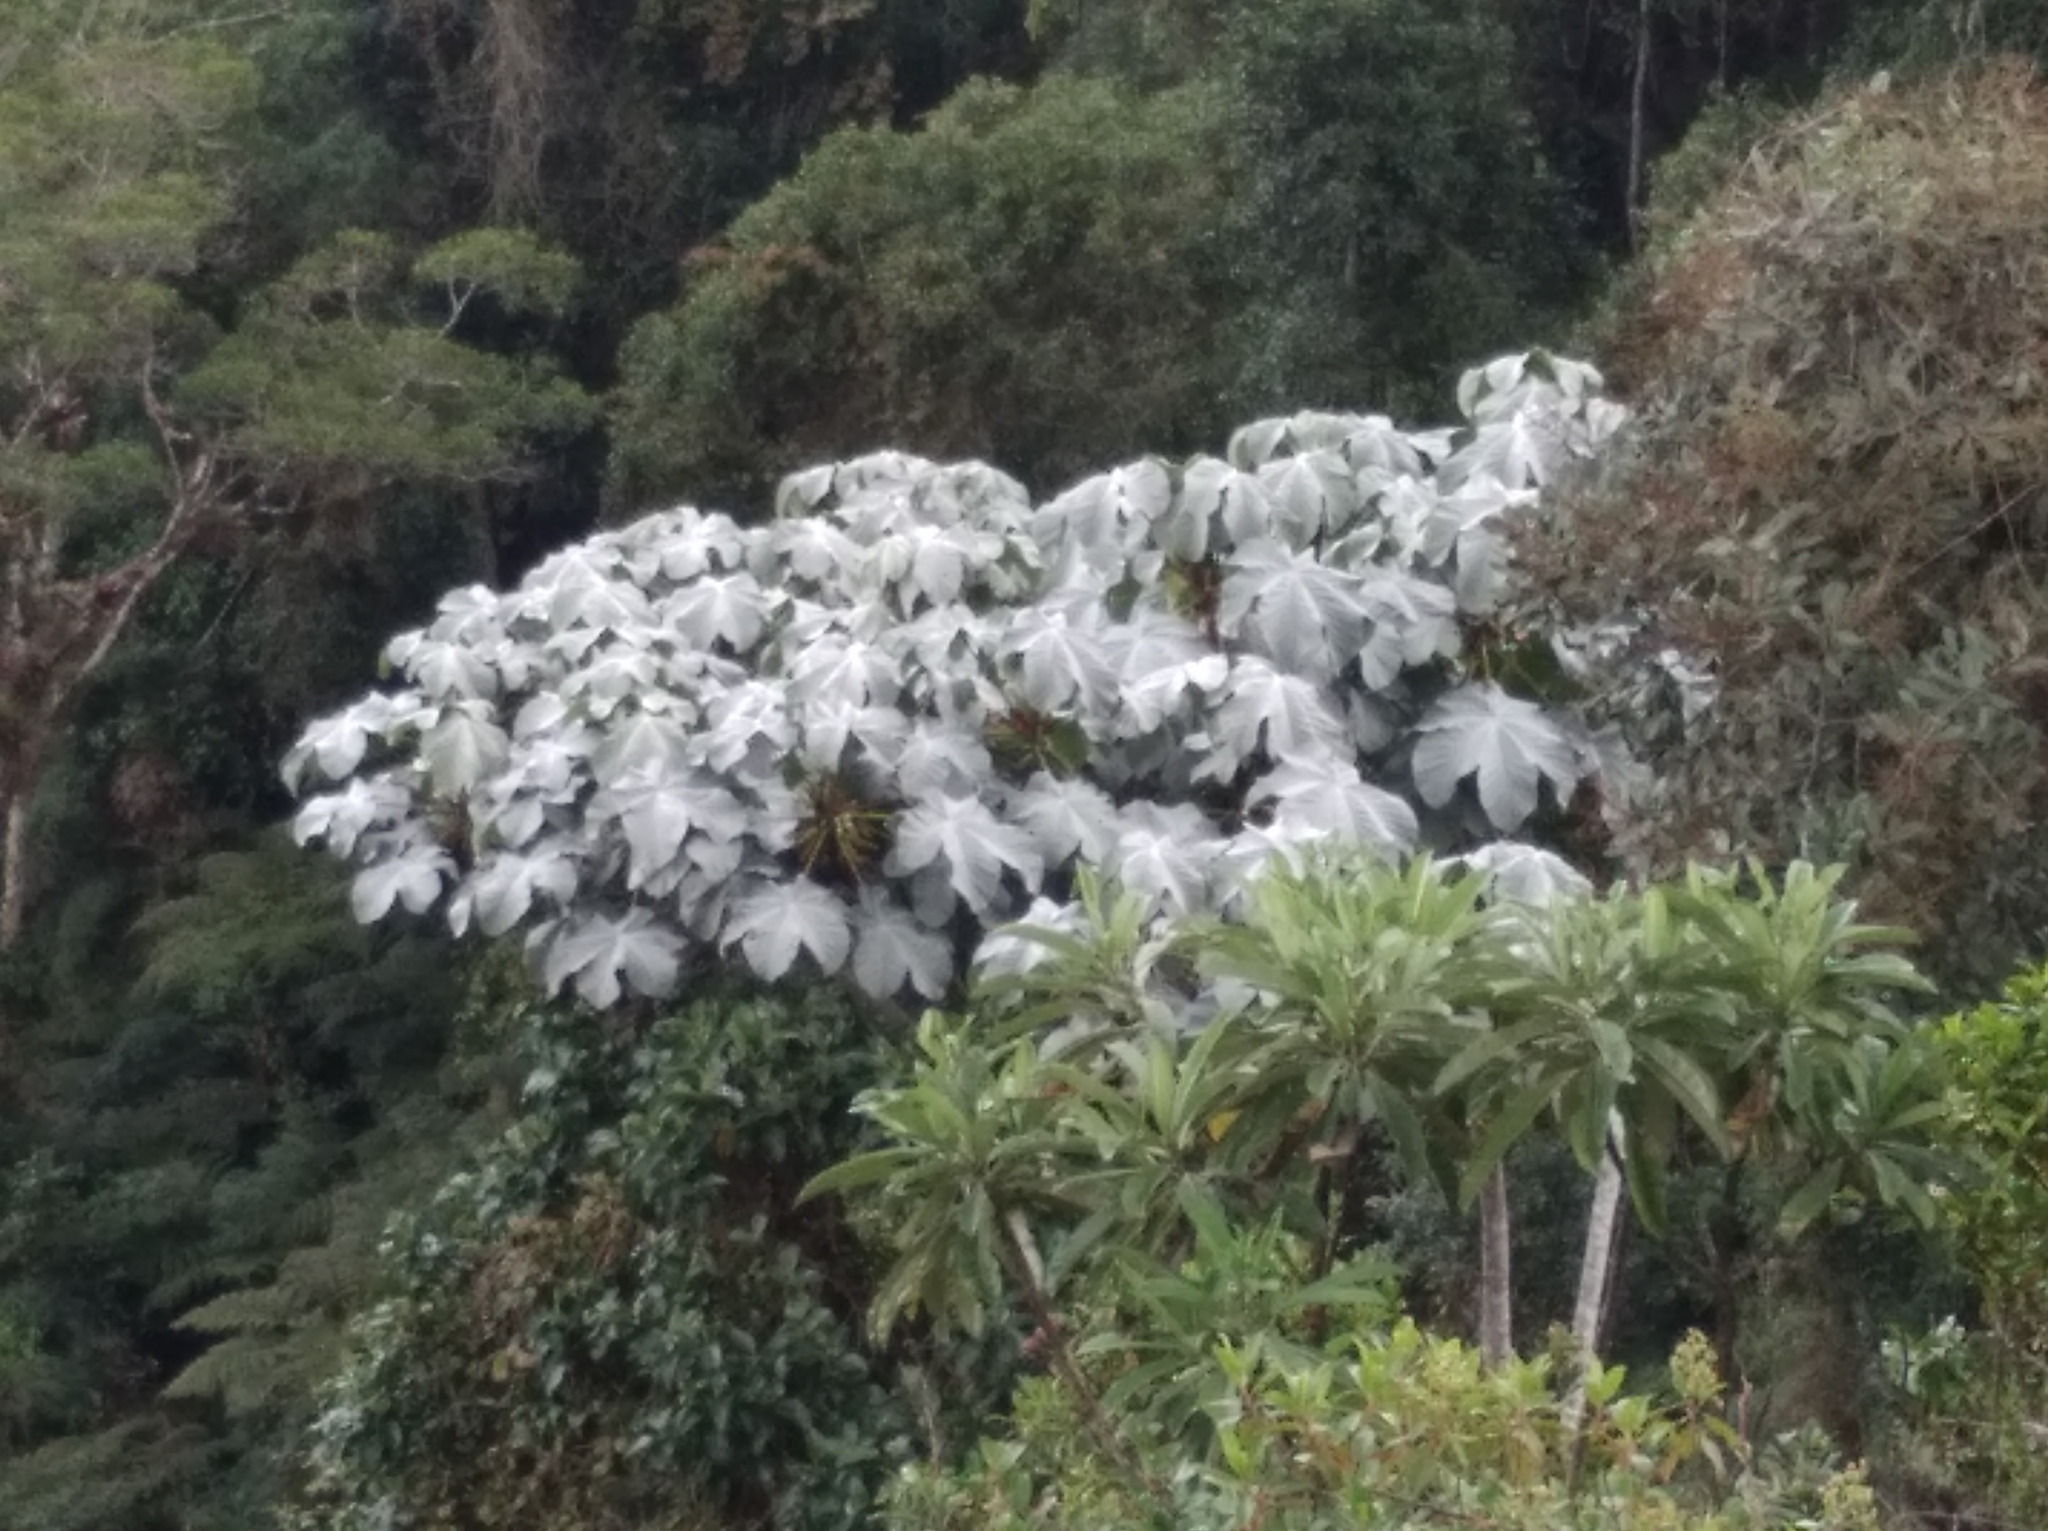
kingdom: Plantae
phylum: Tracheophyta
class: Magnoliopsida
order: Rosales
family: Urticaceae
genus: Cecropia
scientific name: Cecropia telenitida
